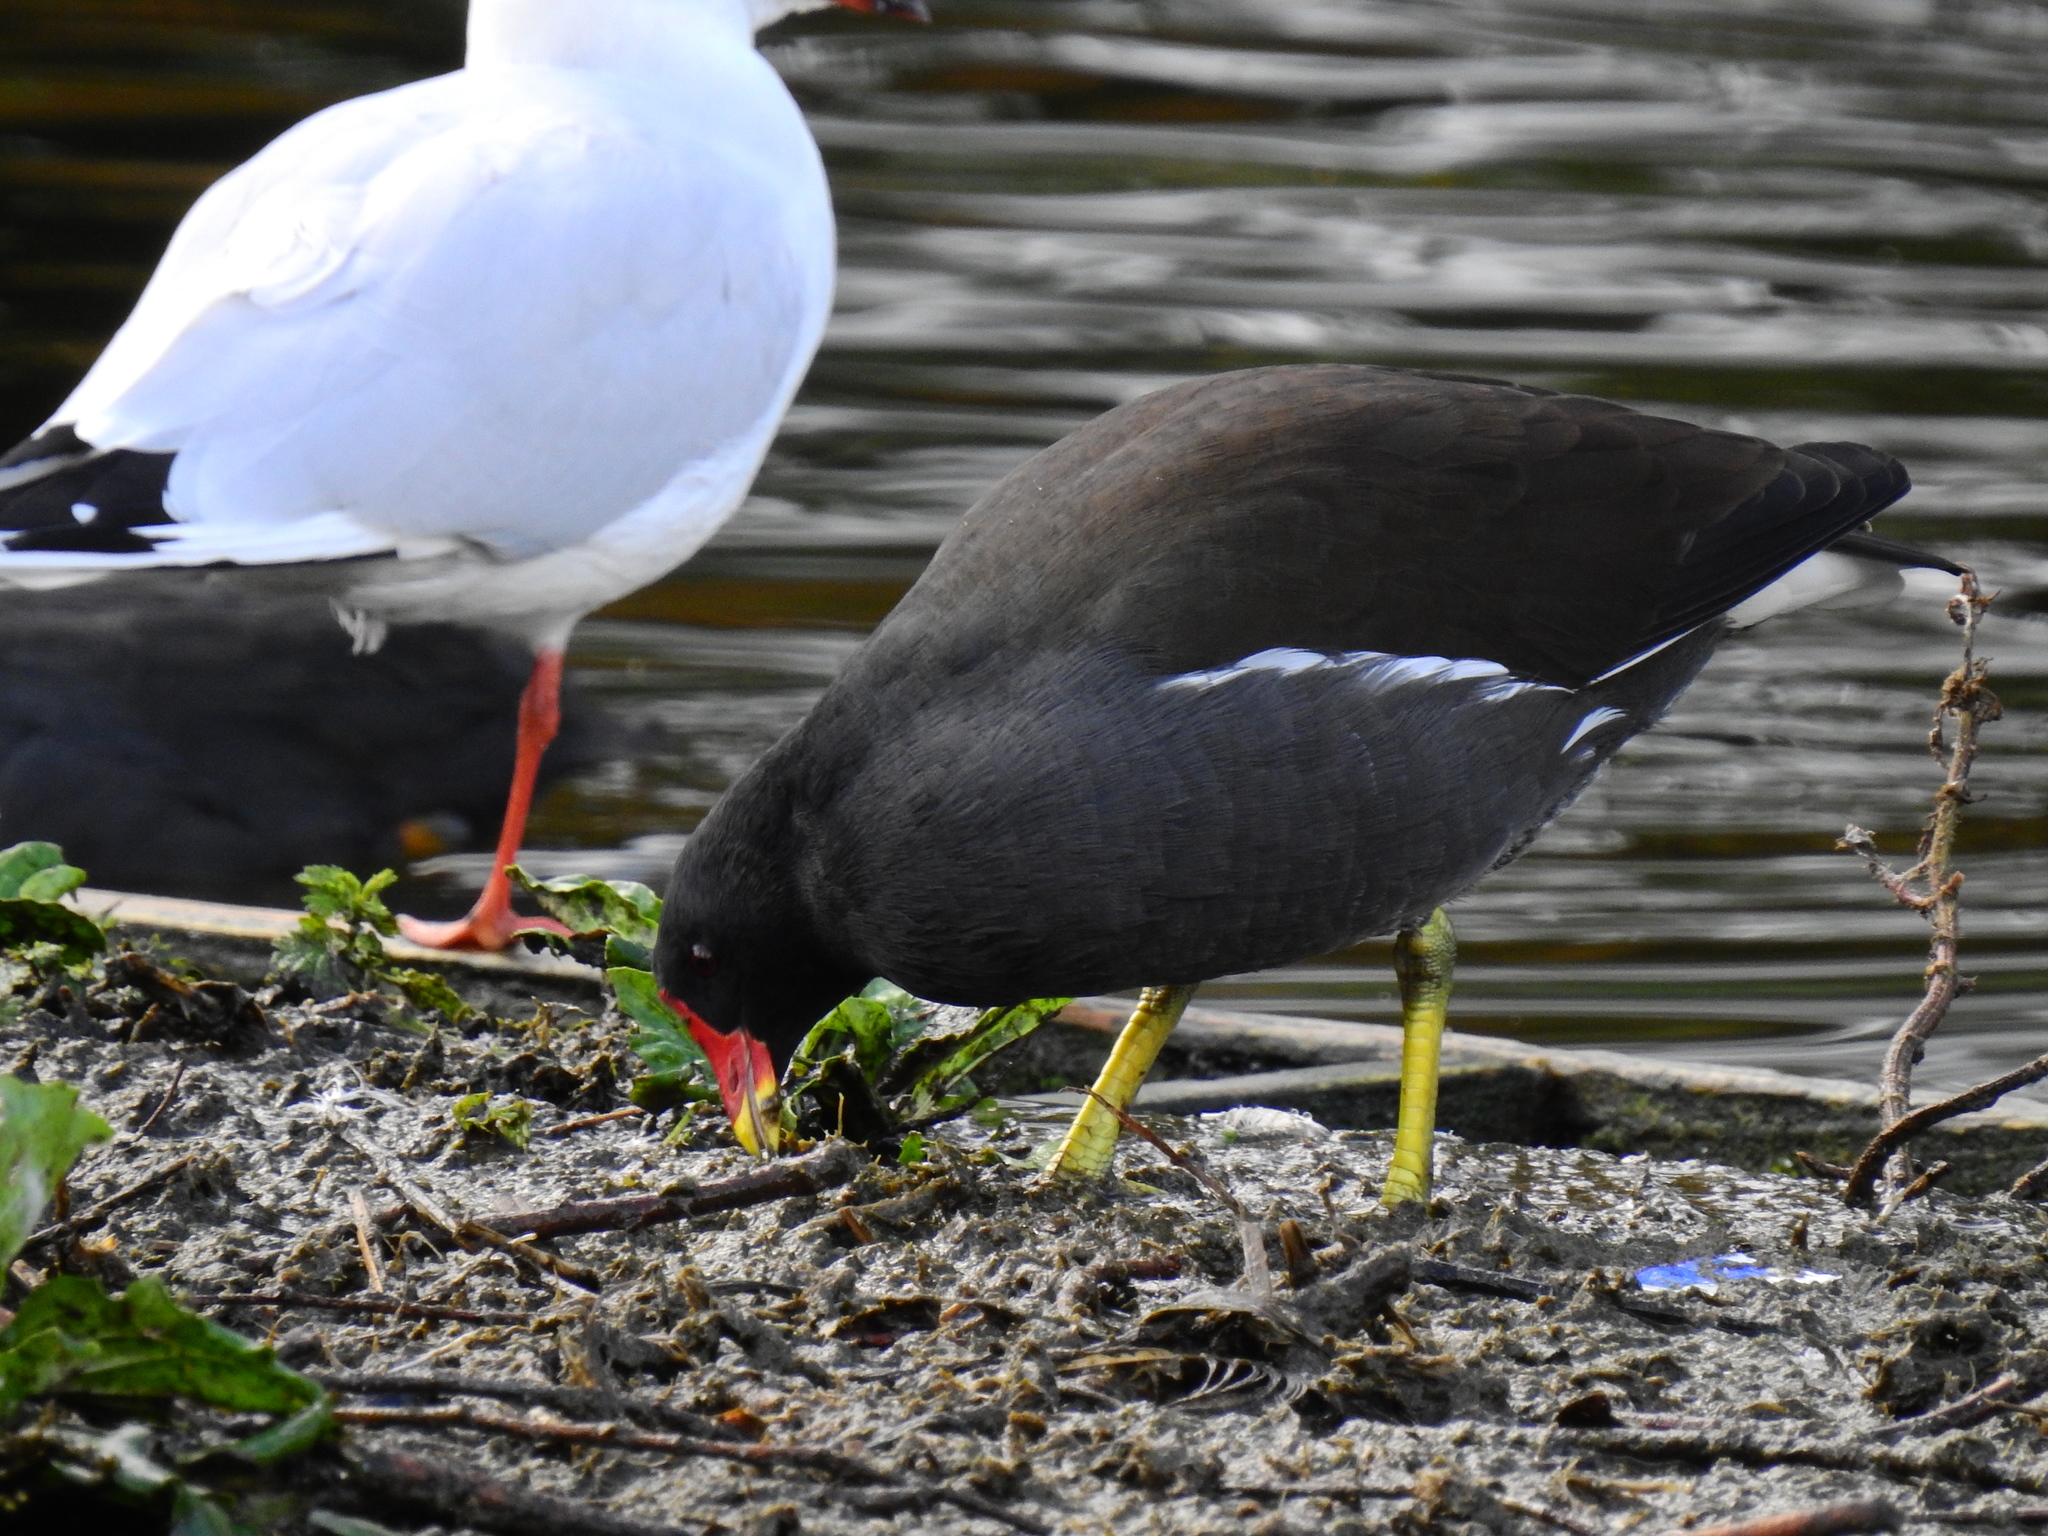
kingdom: Animalia
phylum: Chordata
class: Aves
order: Gruiformes
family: Rallidae
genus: Gallinula
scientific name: Gallinula chloropus
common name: Common moorhen
